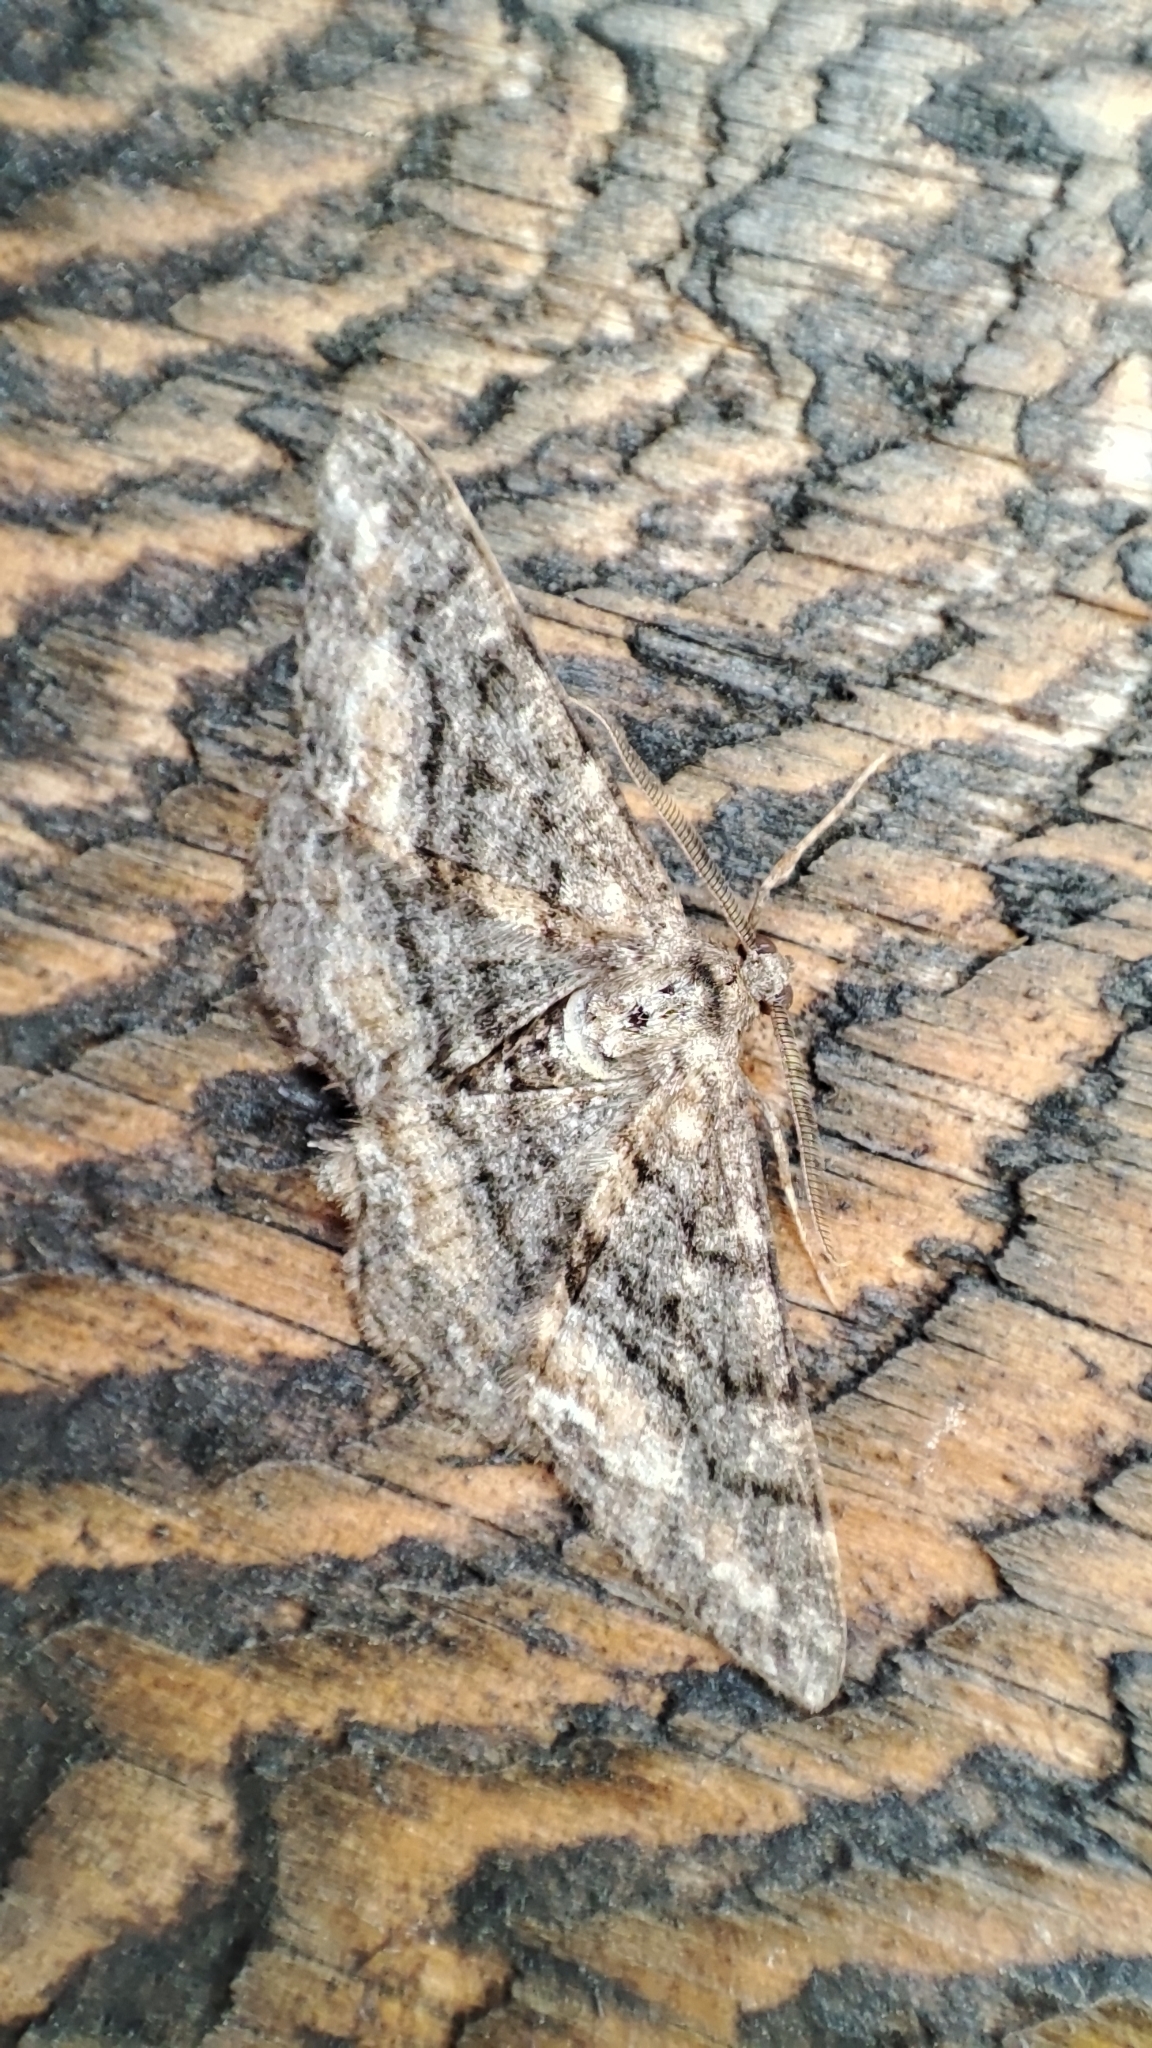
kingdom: Animalia
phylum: Arthropoda
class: Insecta
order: Lepidoptera
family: Geometridae
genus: Pleogynopteryx
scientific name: Pleogynopteryx bituminaria
